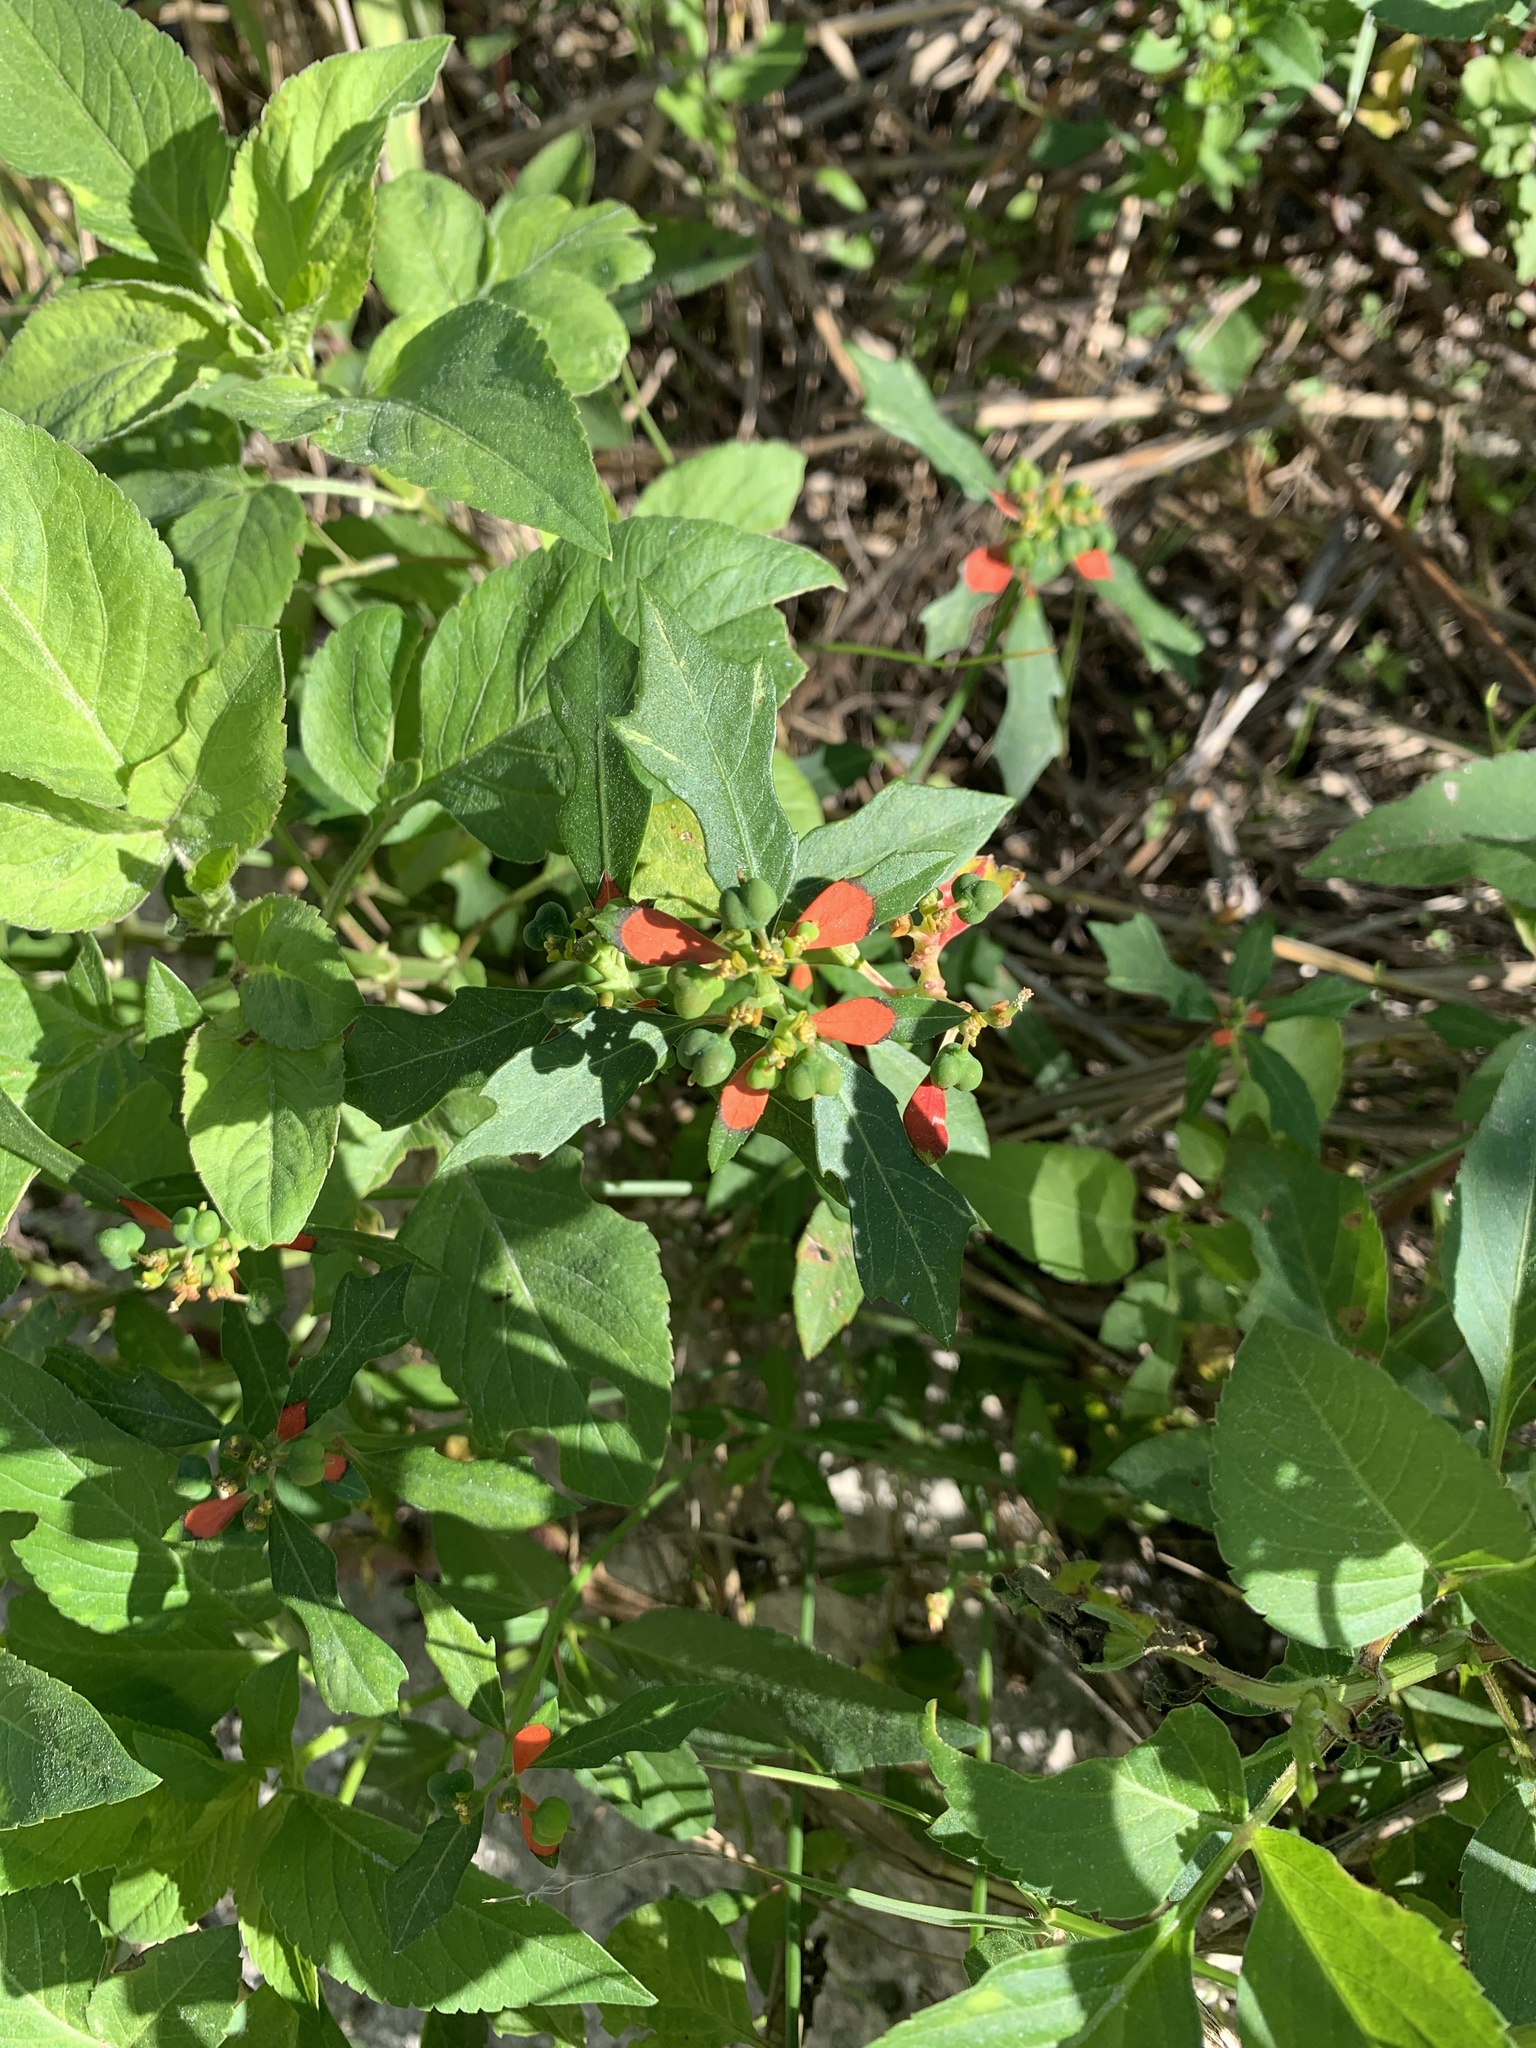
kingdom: Plantae
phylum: Tracheophyta
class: Magnoliopsida
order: Malpighiales
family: Euphorbiaceae
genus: Euphorbia
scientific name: Euphorbia heterophylla
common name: Mexican fireplant
